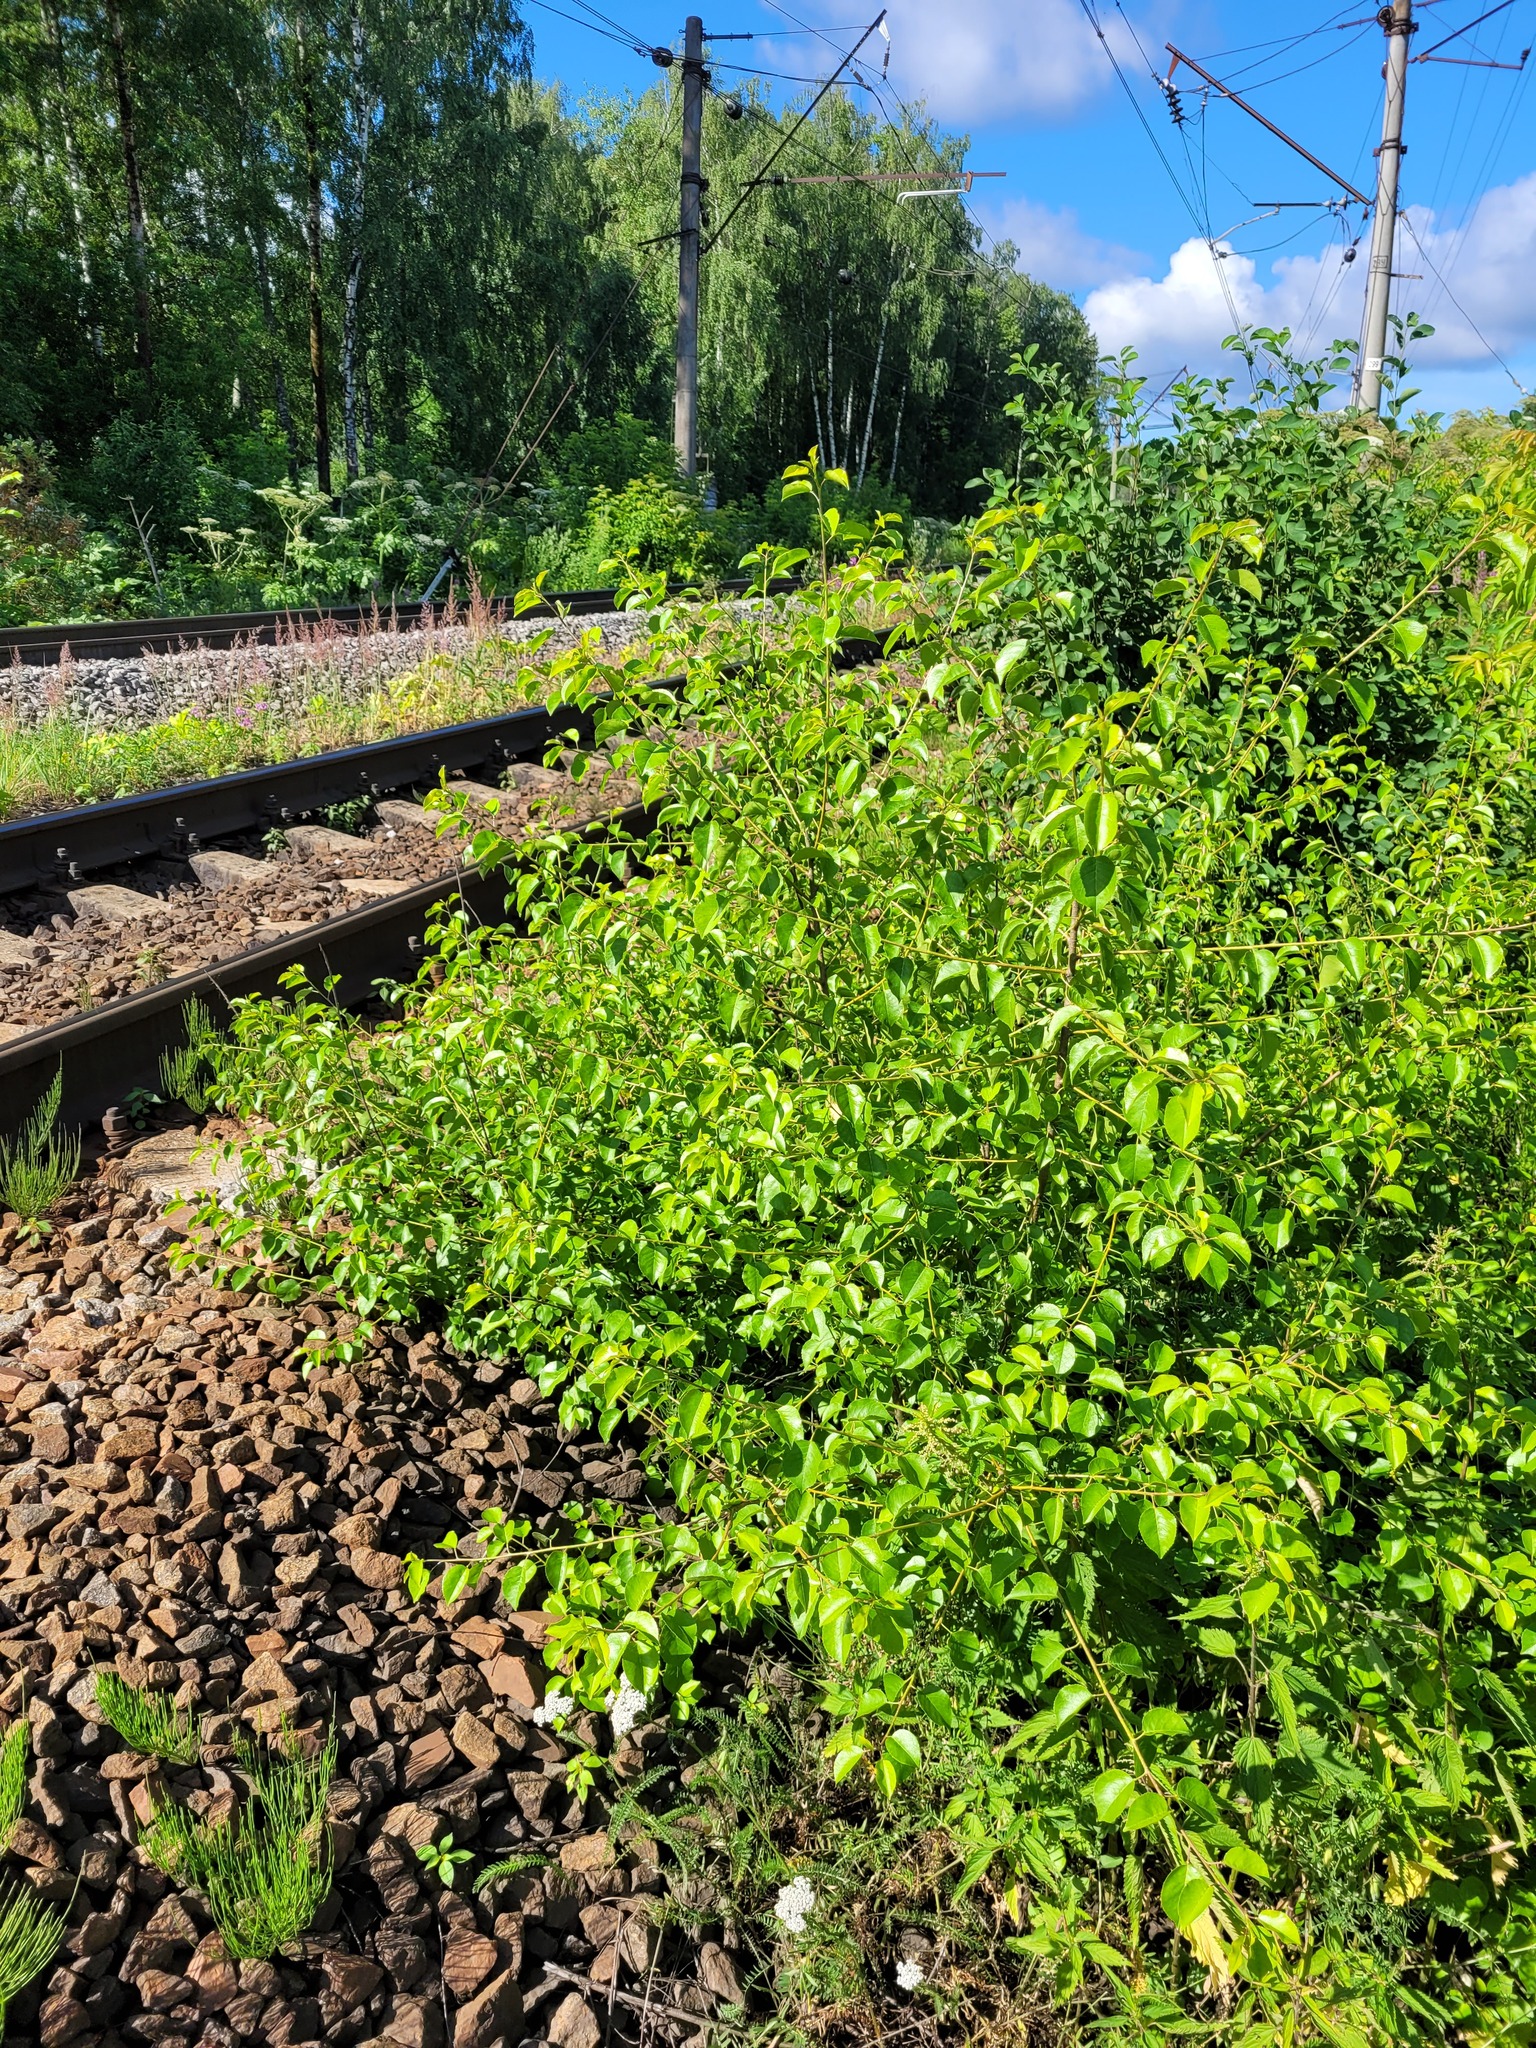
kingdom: Plantae
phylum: Tracheophyta
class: Magnoliopsida
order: Rosales
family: Rosaceae
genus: Prunus
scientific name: Prunus mahaleb
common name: Mahaleb cherry
